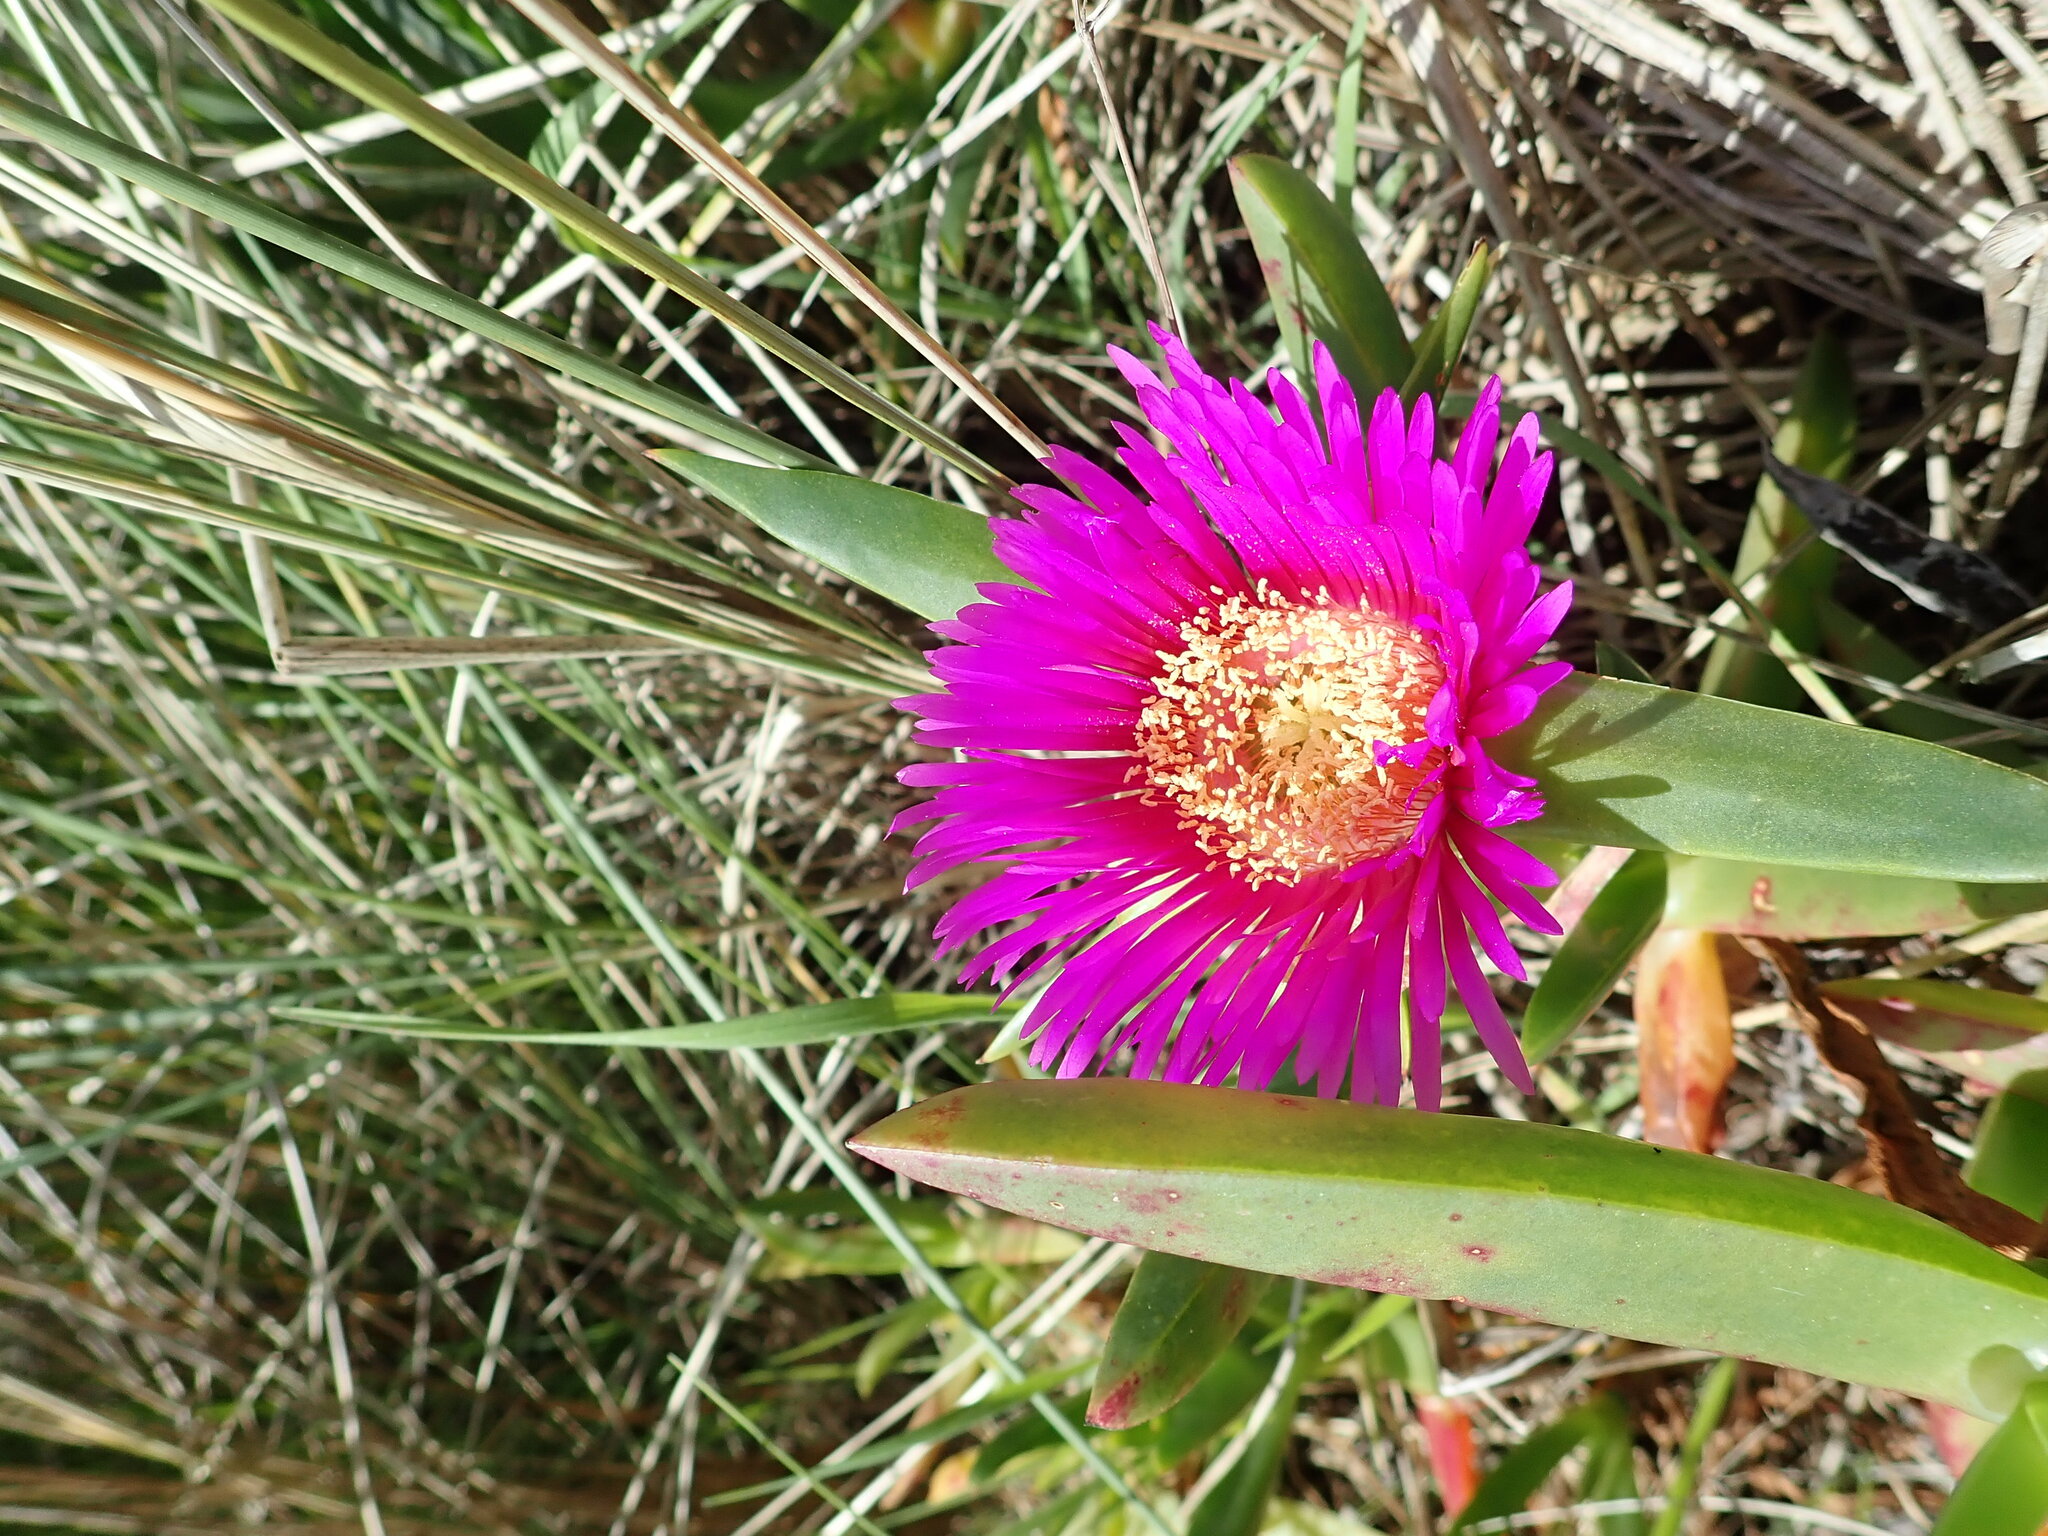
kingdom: Plantae
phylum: Tracheophyta
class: Magnoliopsida
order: Caryophyllales
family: Aizoaceae
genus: Carpobrotus
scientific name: Carpobrotus chilensis
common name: Sea fig
